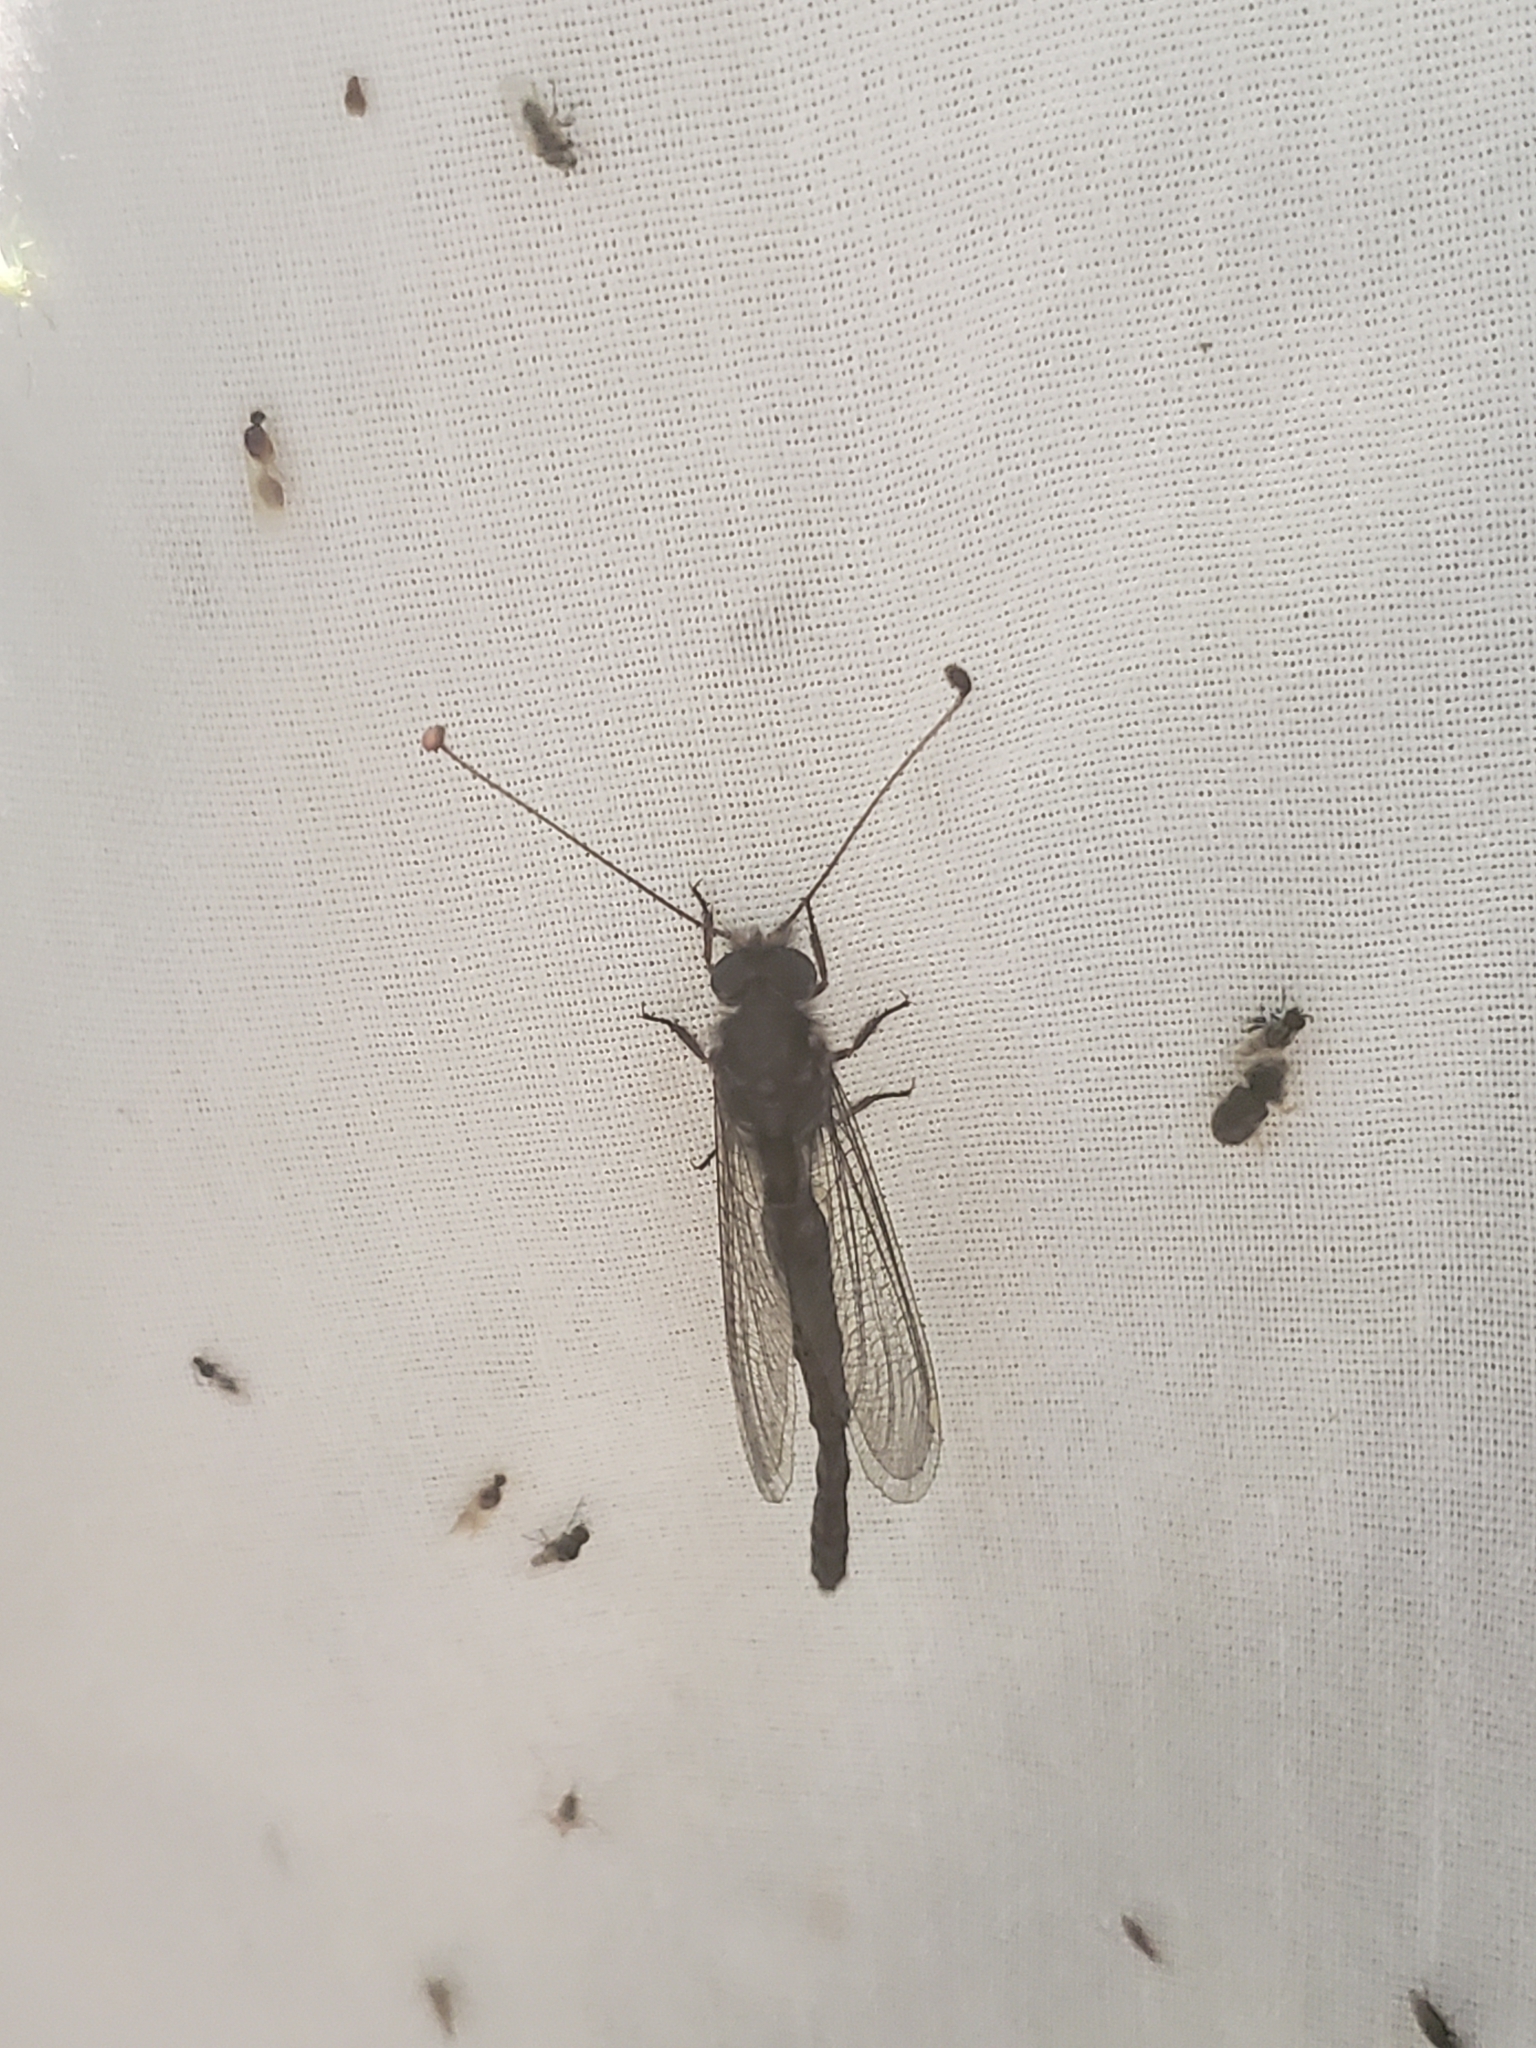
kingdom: Animalia
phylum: Arthropoda
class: Insecta
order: Neuroptera
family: Ascalaphidae
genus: Ululodes
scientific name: Ululodes quadripunctatus
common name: Four-spotted owlfly
